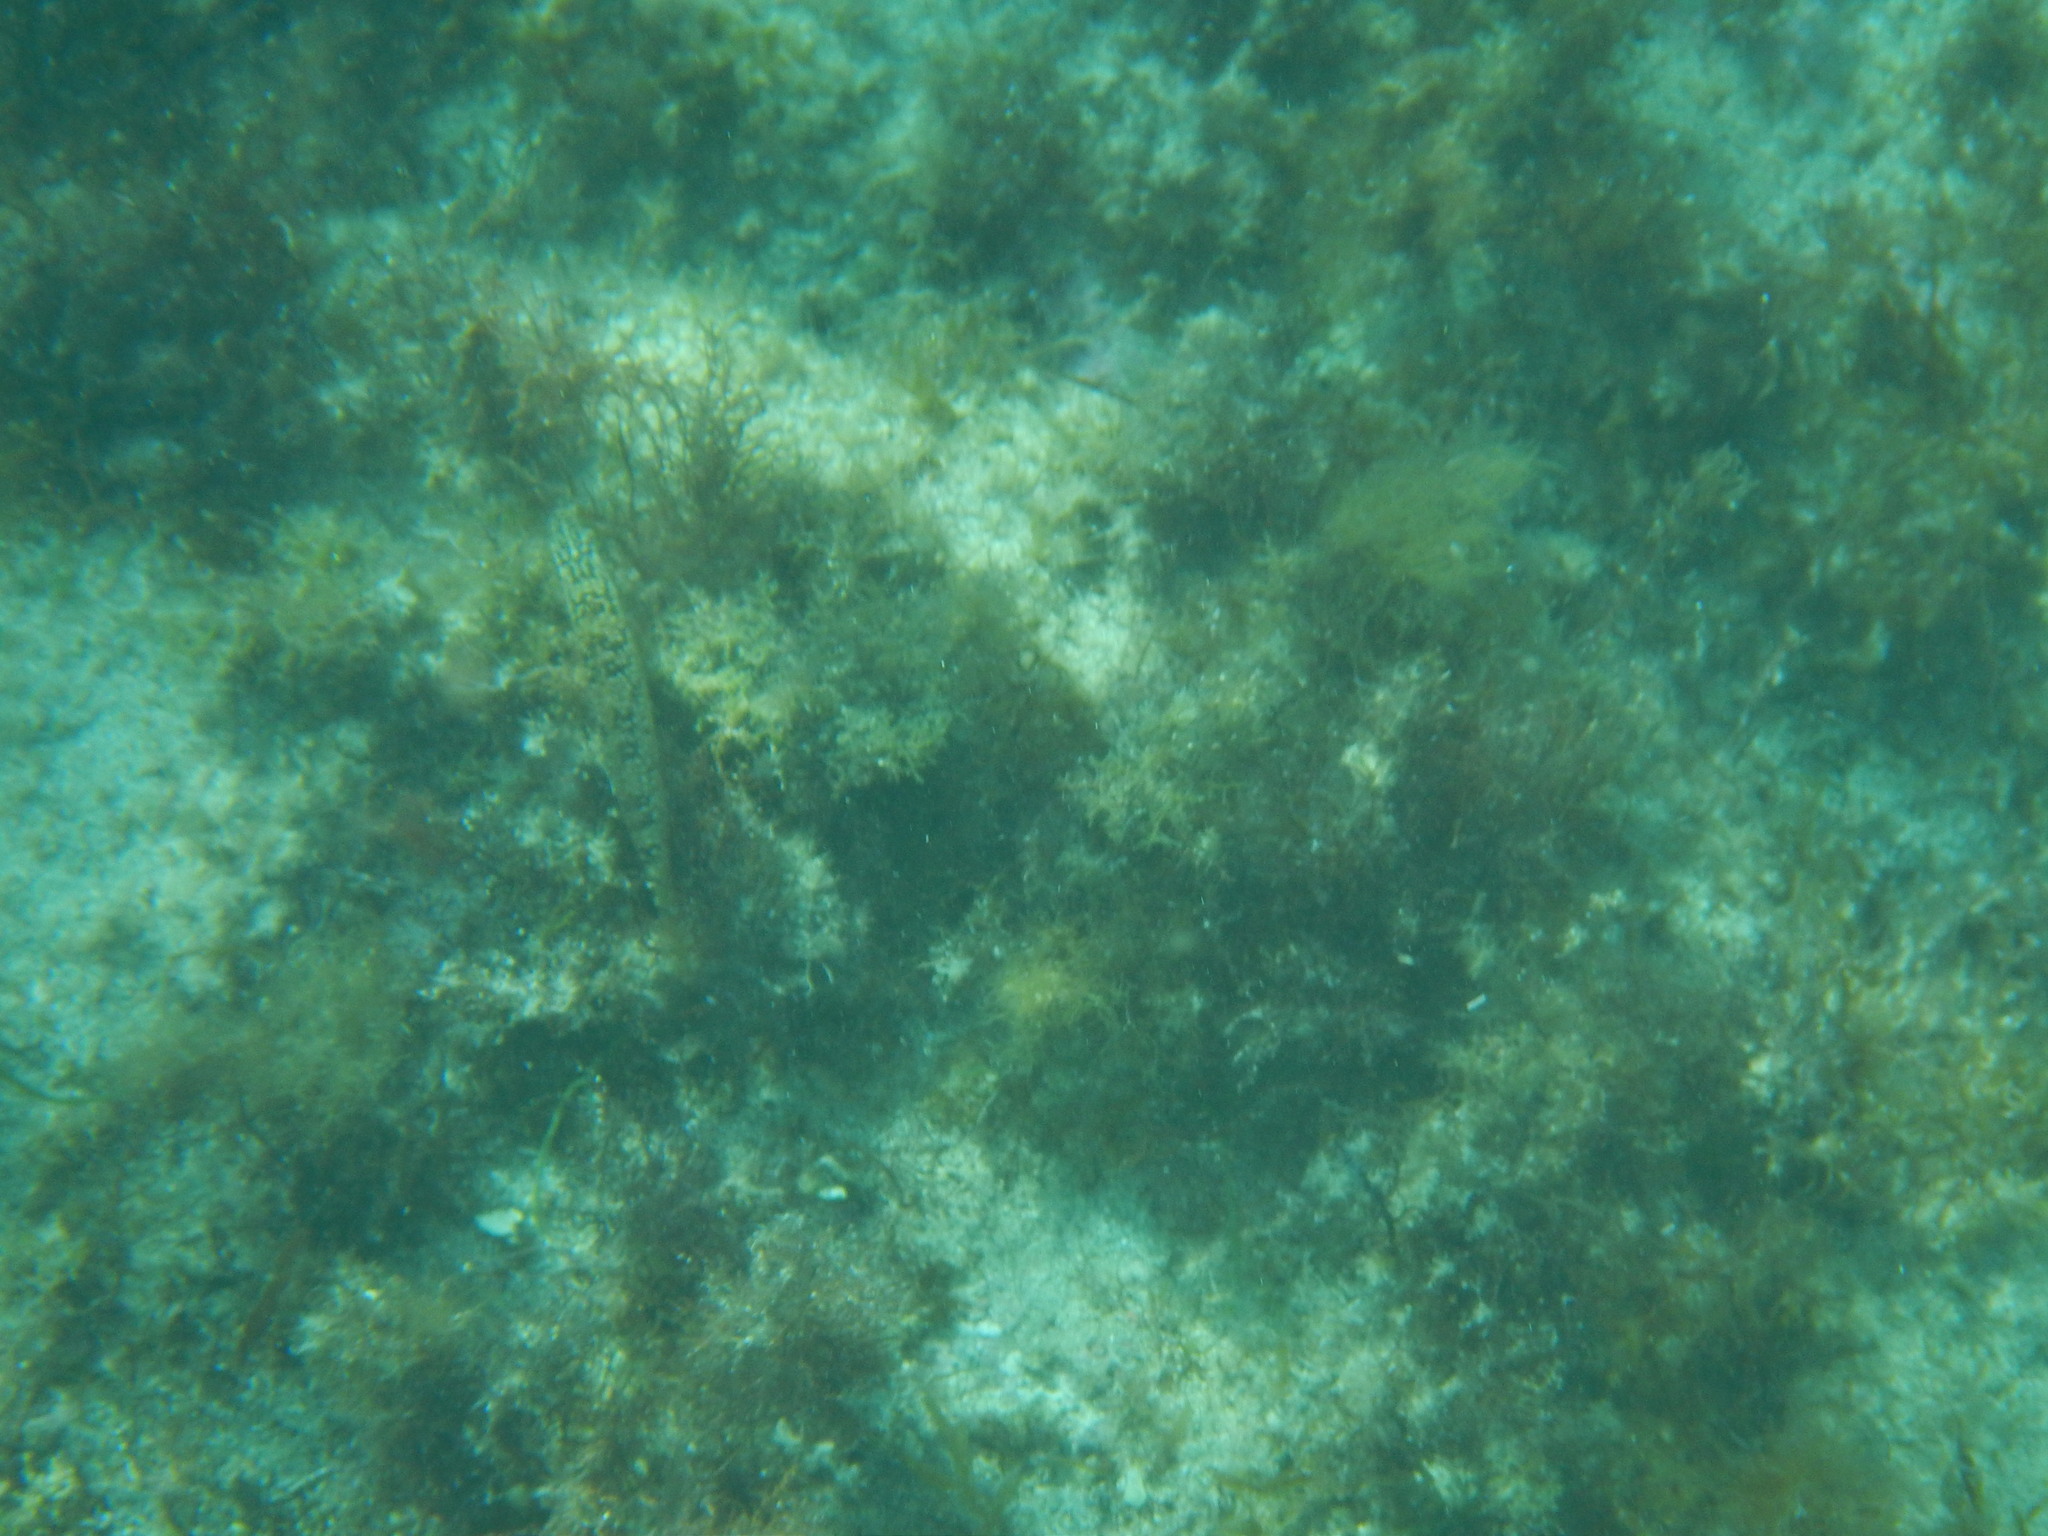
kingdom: Animalia
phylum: Chordata
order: Perciformes
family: Labridae
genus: Labrus
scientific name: Labrus viridis
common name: Green wrasse
